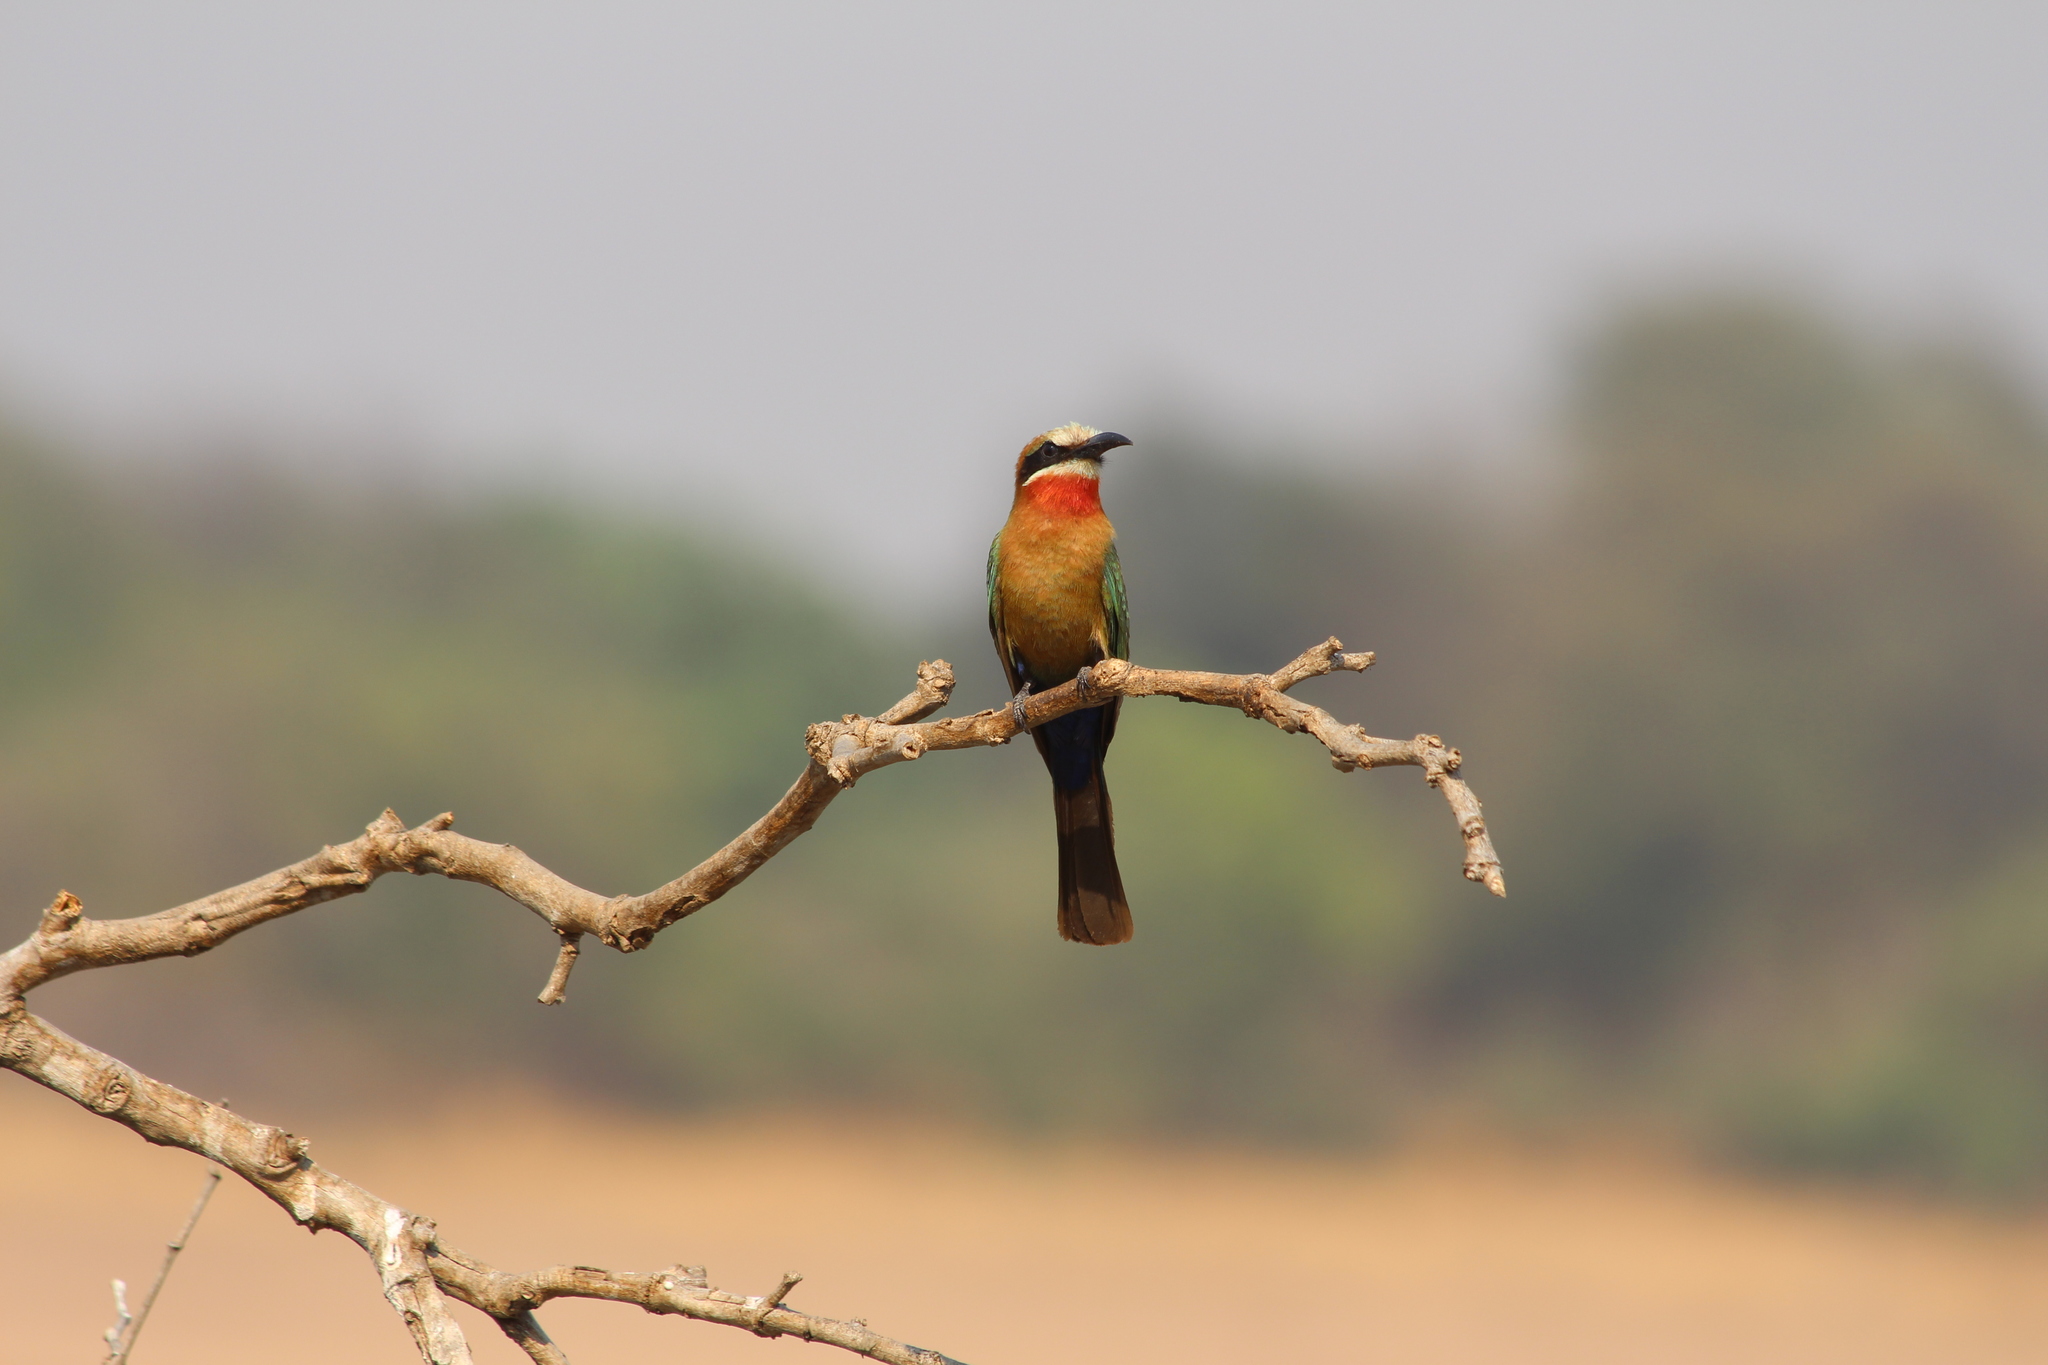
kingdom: Animalia
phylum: Chordata
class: Aves
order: Coraciiformes
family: Meropidae
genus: Merops
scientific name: Merops bullockoides
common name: White-fronted bee-eater
